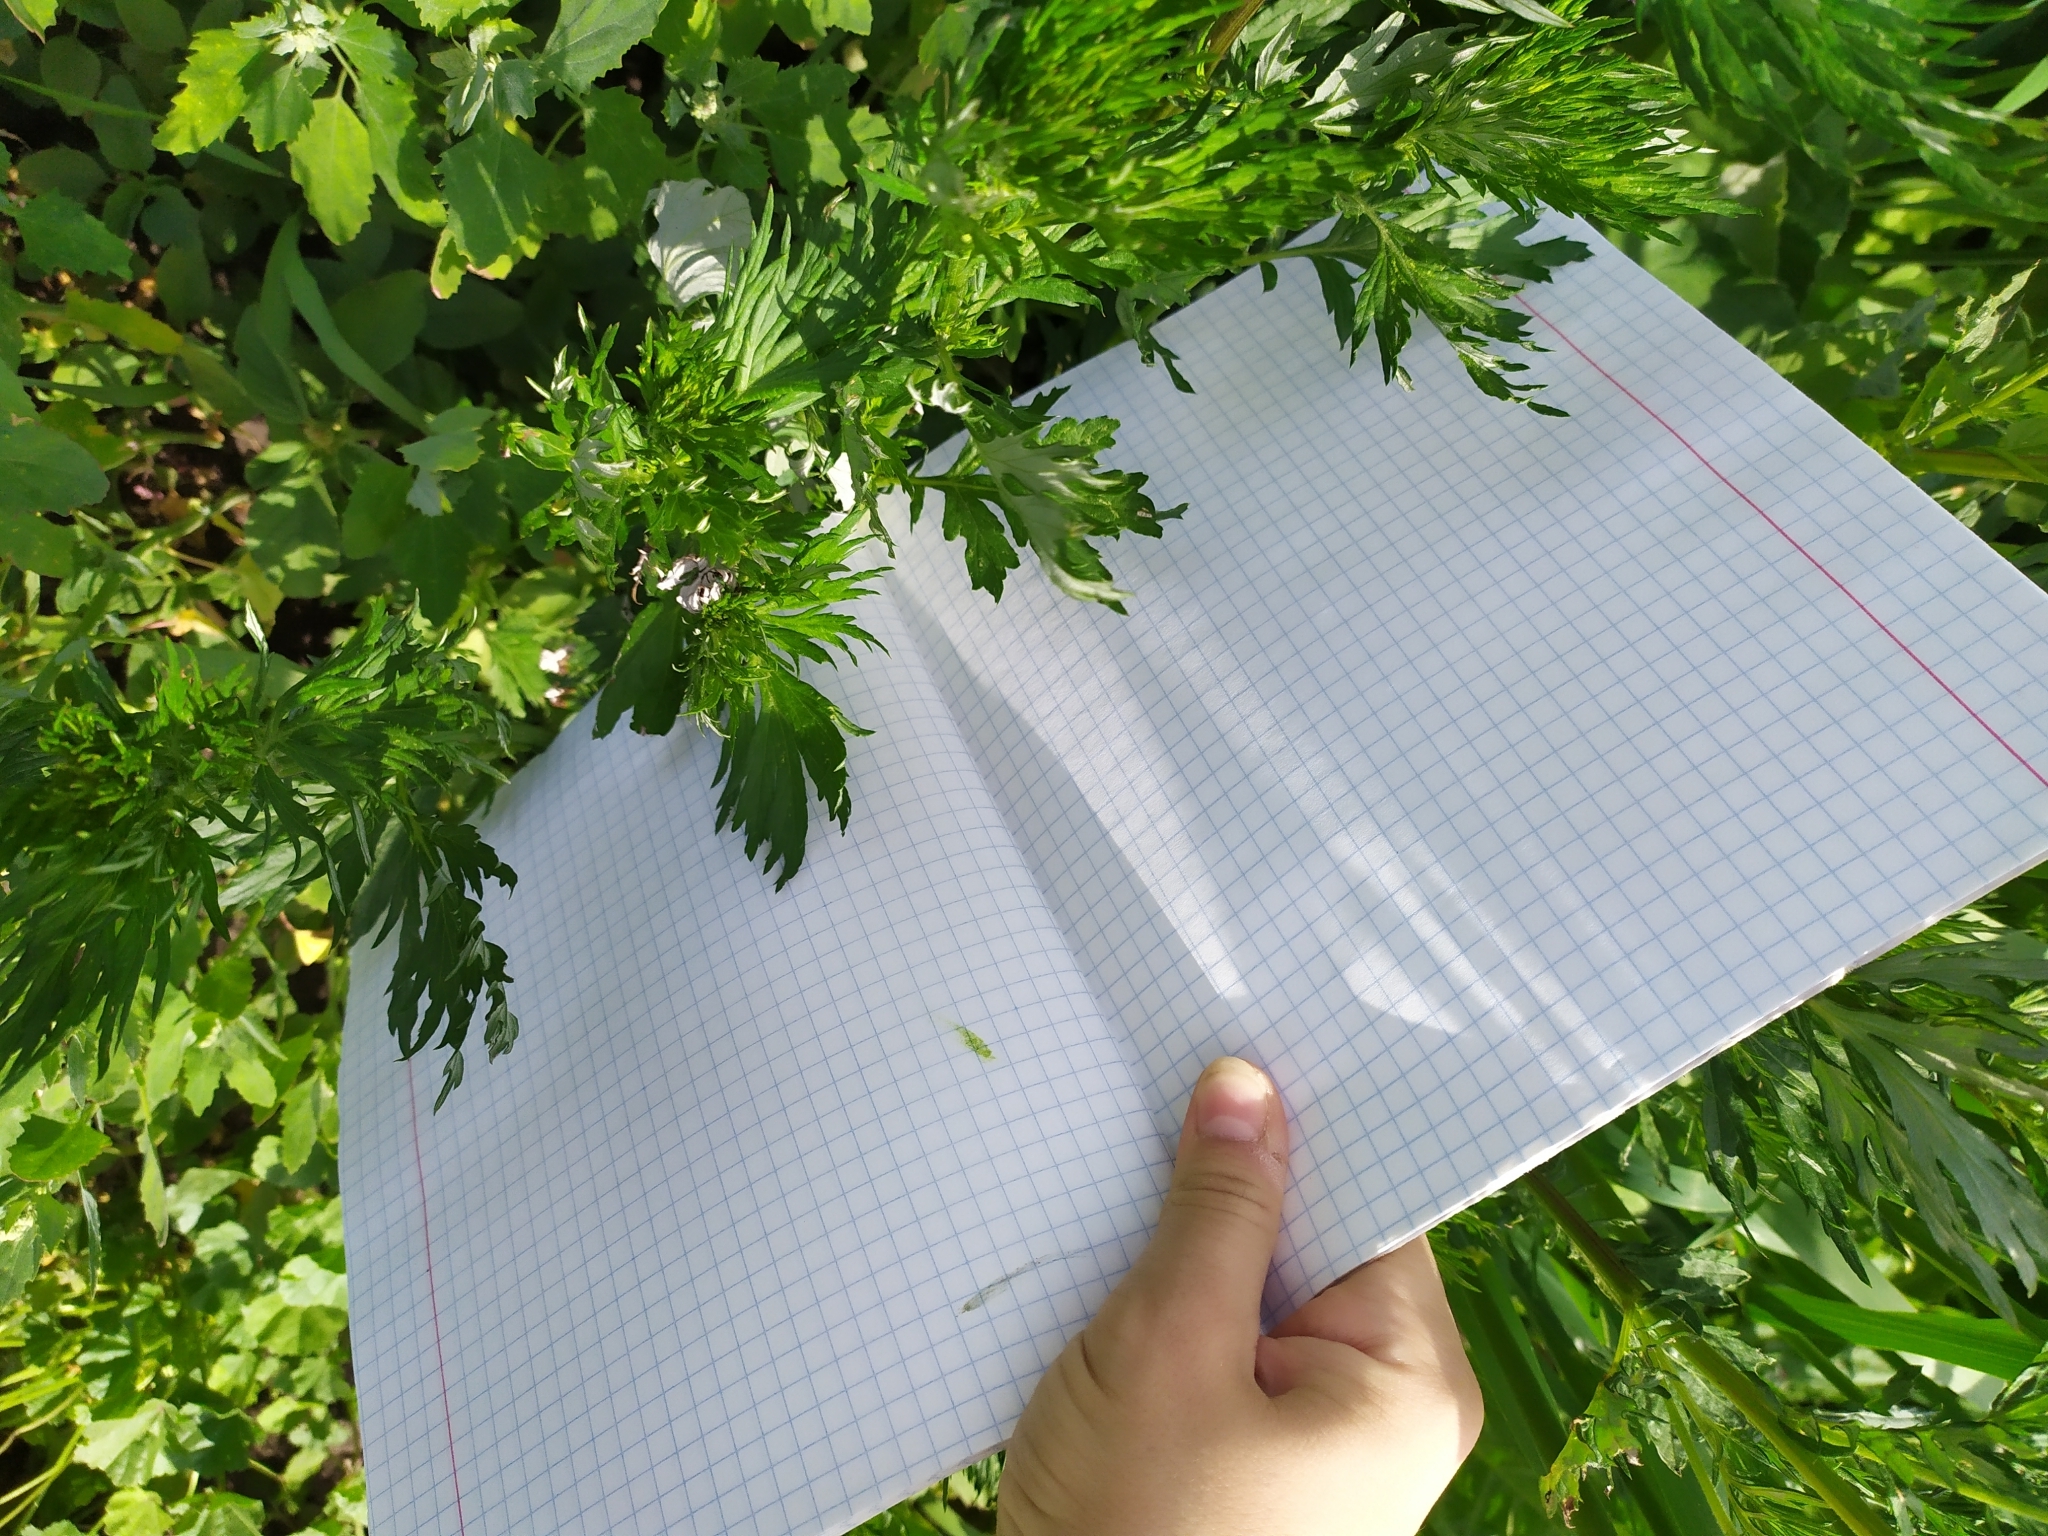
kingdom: Plantae
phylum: Tracheophyta
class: Magnoliopsida
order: Asterales
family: Asteraceae
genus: Artemisia
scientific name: Artemisia vulgaris
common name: Mugwort
